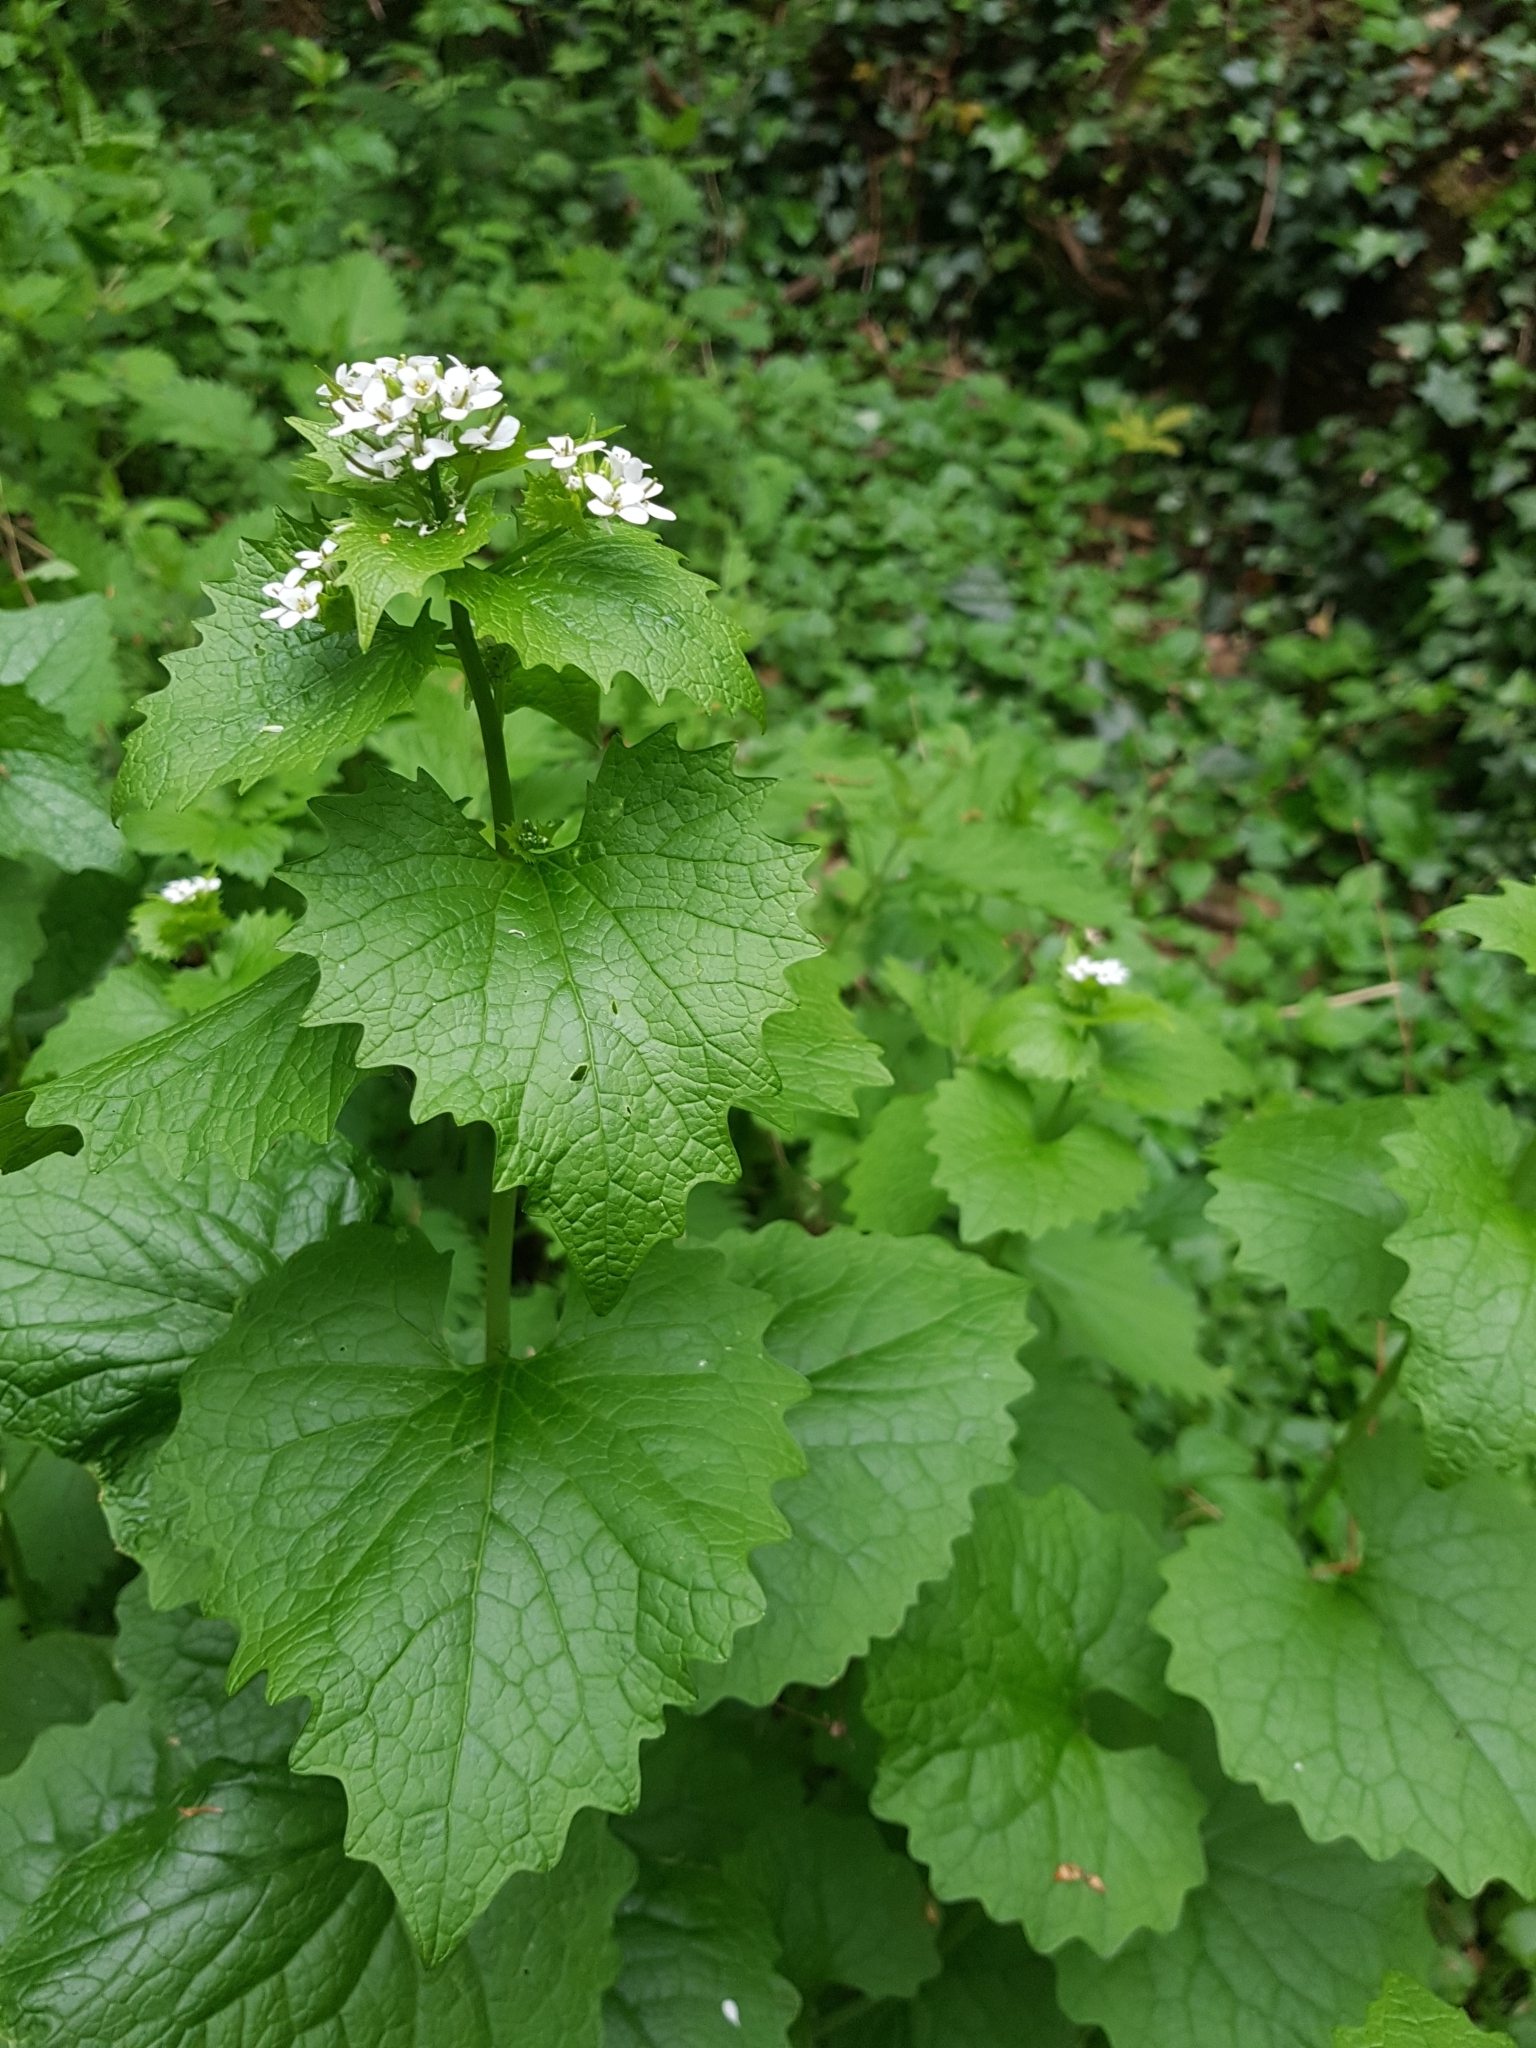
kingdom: Plantae
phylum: Tracheophyta
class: Magnoliopsida
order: Brassicales
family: Brassicaceae
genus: Alliaria
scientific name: Alliaria petiolata
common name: Garlic mustard
